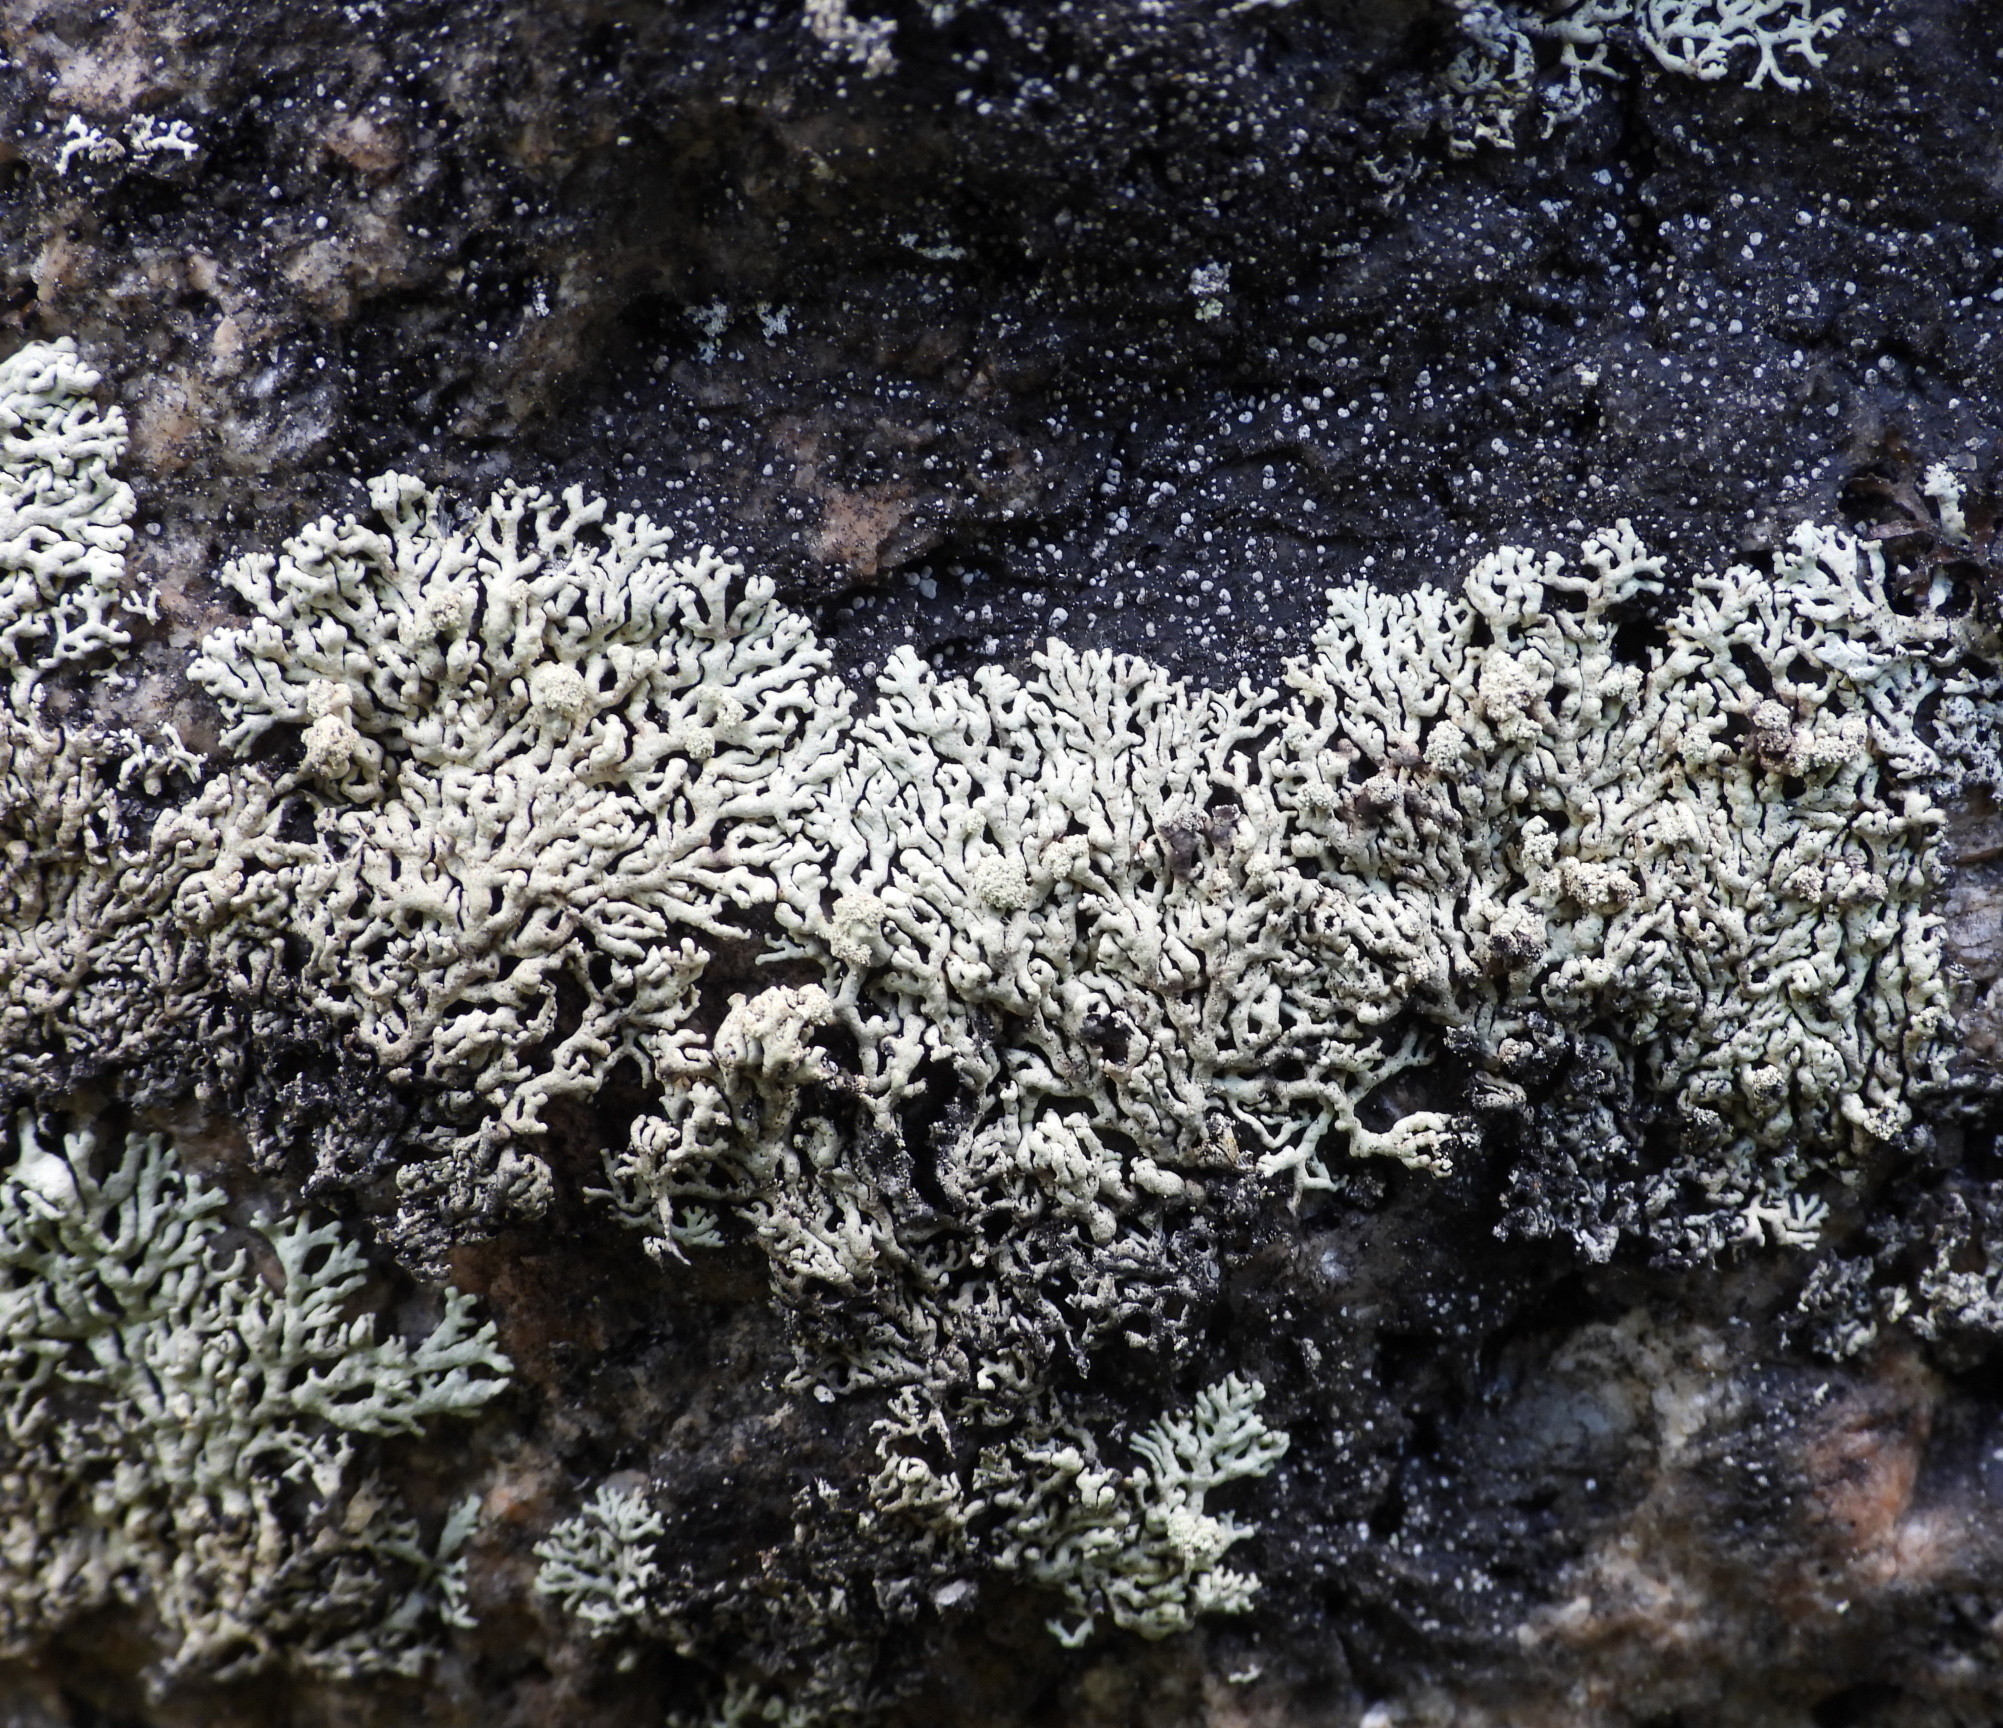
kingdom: Fungi
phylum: Ascomycota
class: Lecanoromycetes
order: Lecanorales
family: Parmeliaceae
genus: Arctoparmelia
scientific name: Arctoparmelia incurva
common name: Bent ring lichen
